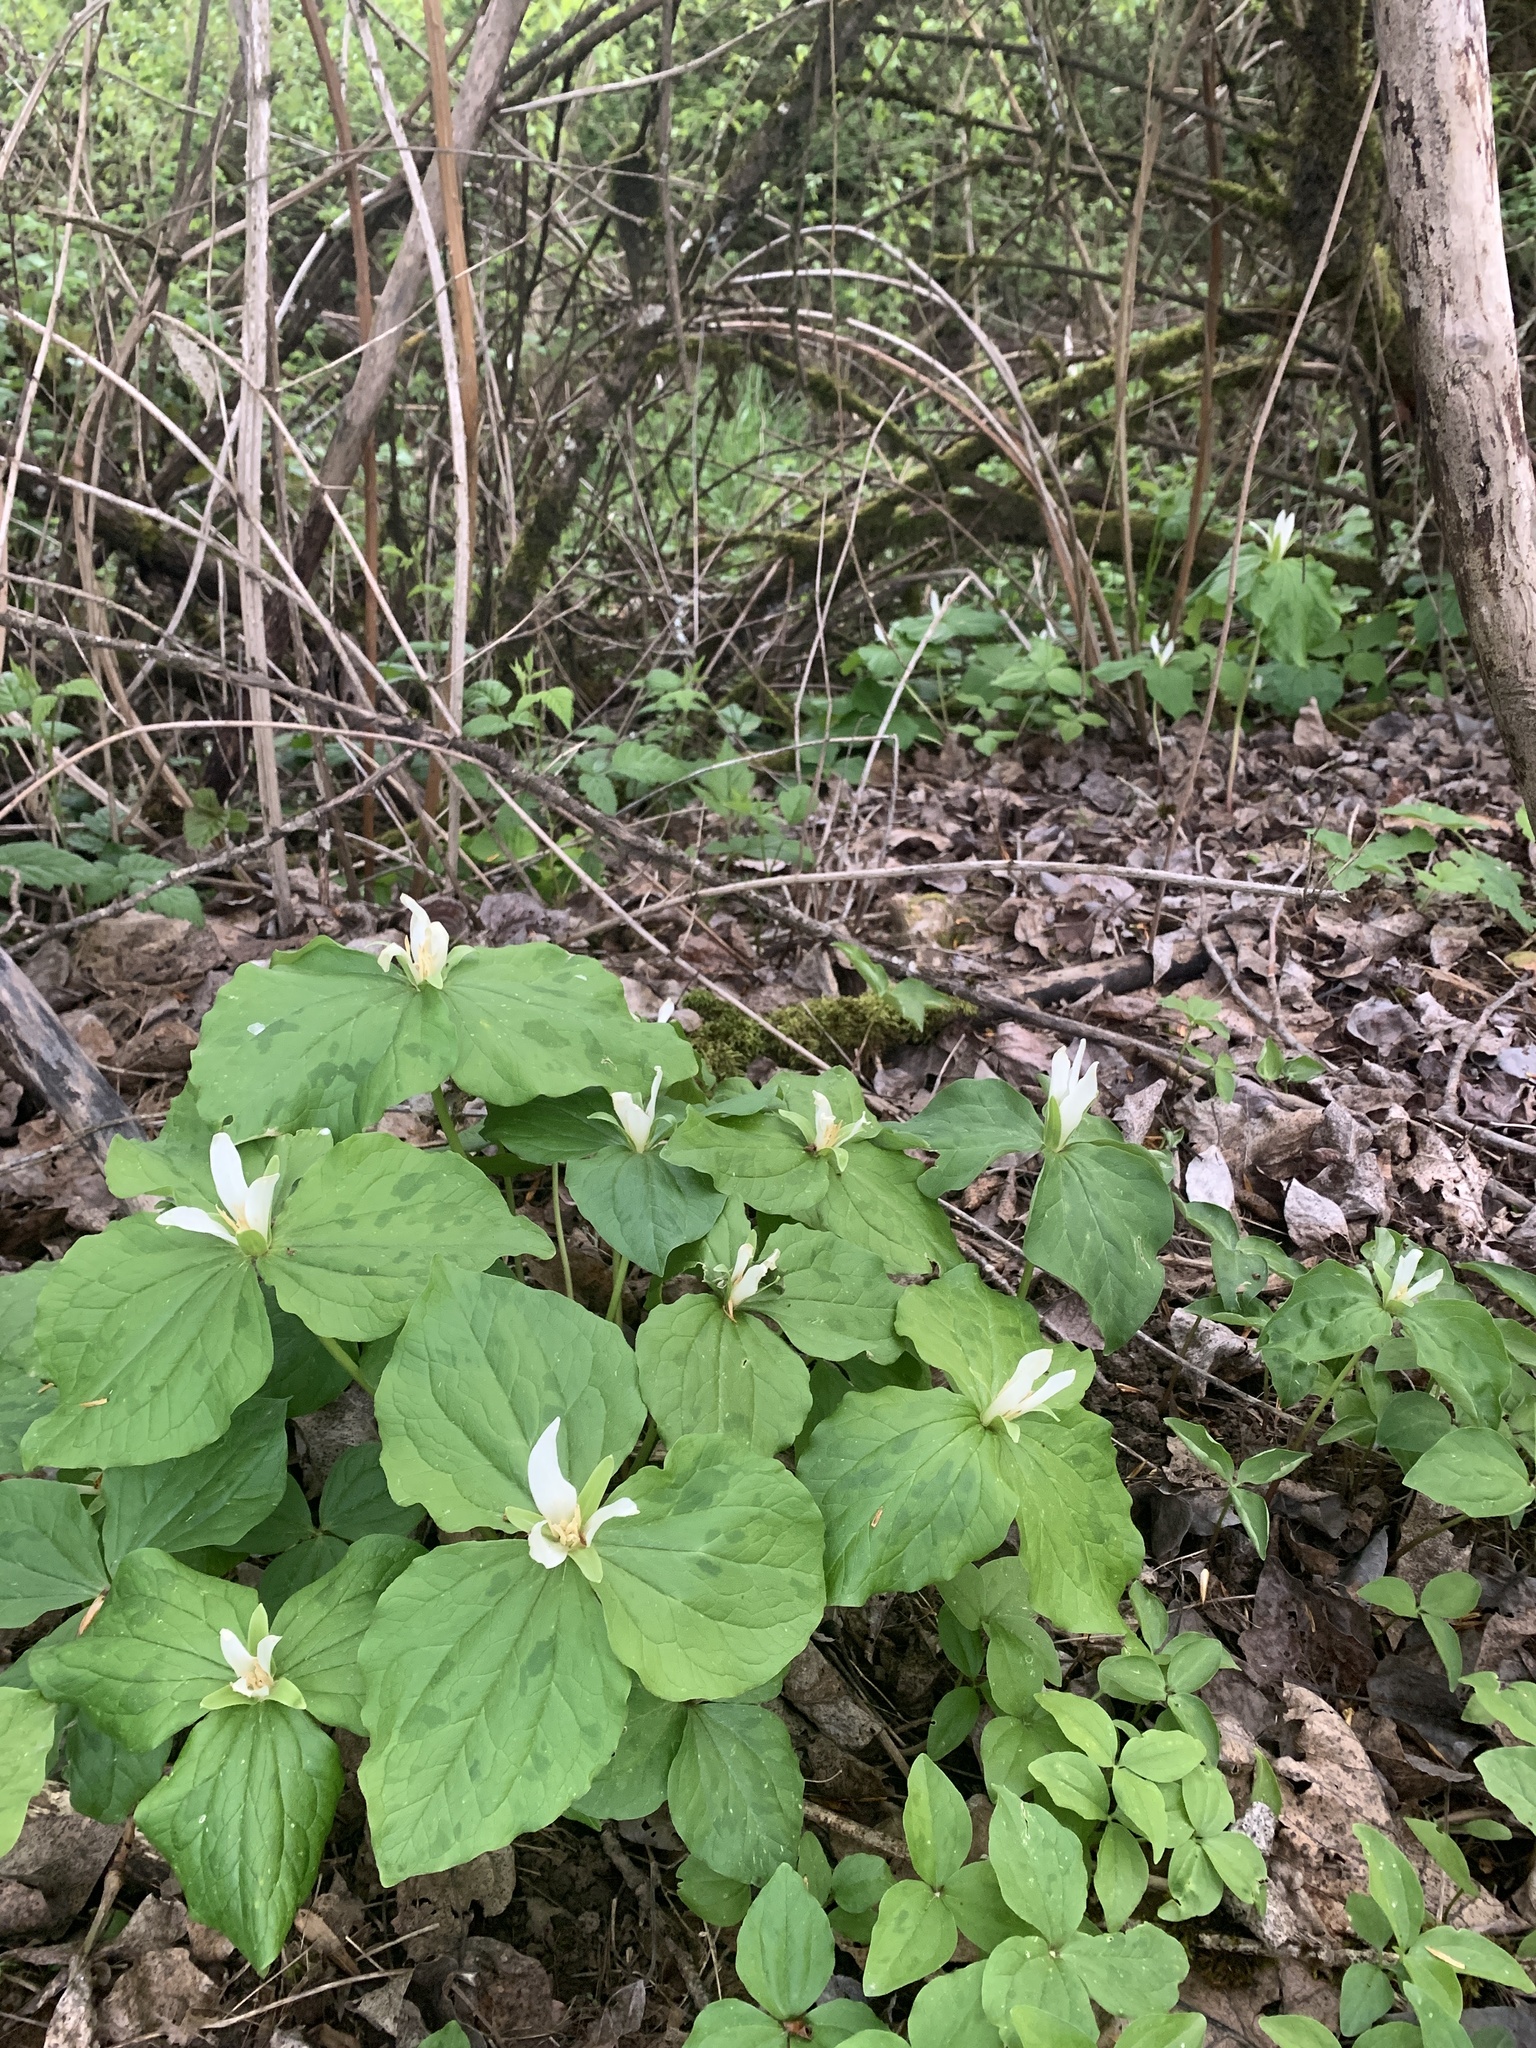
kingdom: Plantae
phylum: Tracheophyta
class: Liliopsida
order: Liliales
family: Melanthiaceae
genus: Trillium
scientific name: Trillium albidum
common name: Freeman's trillium
